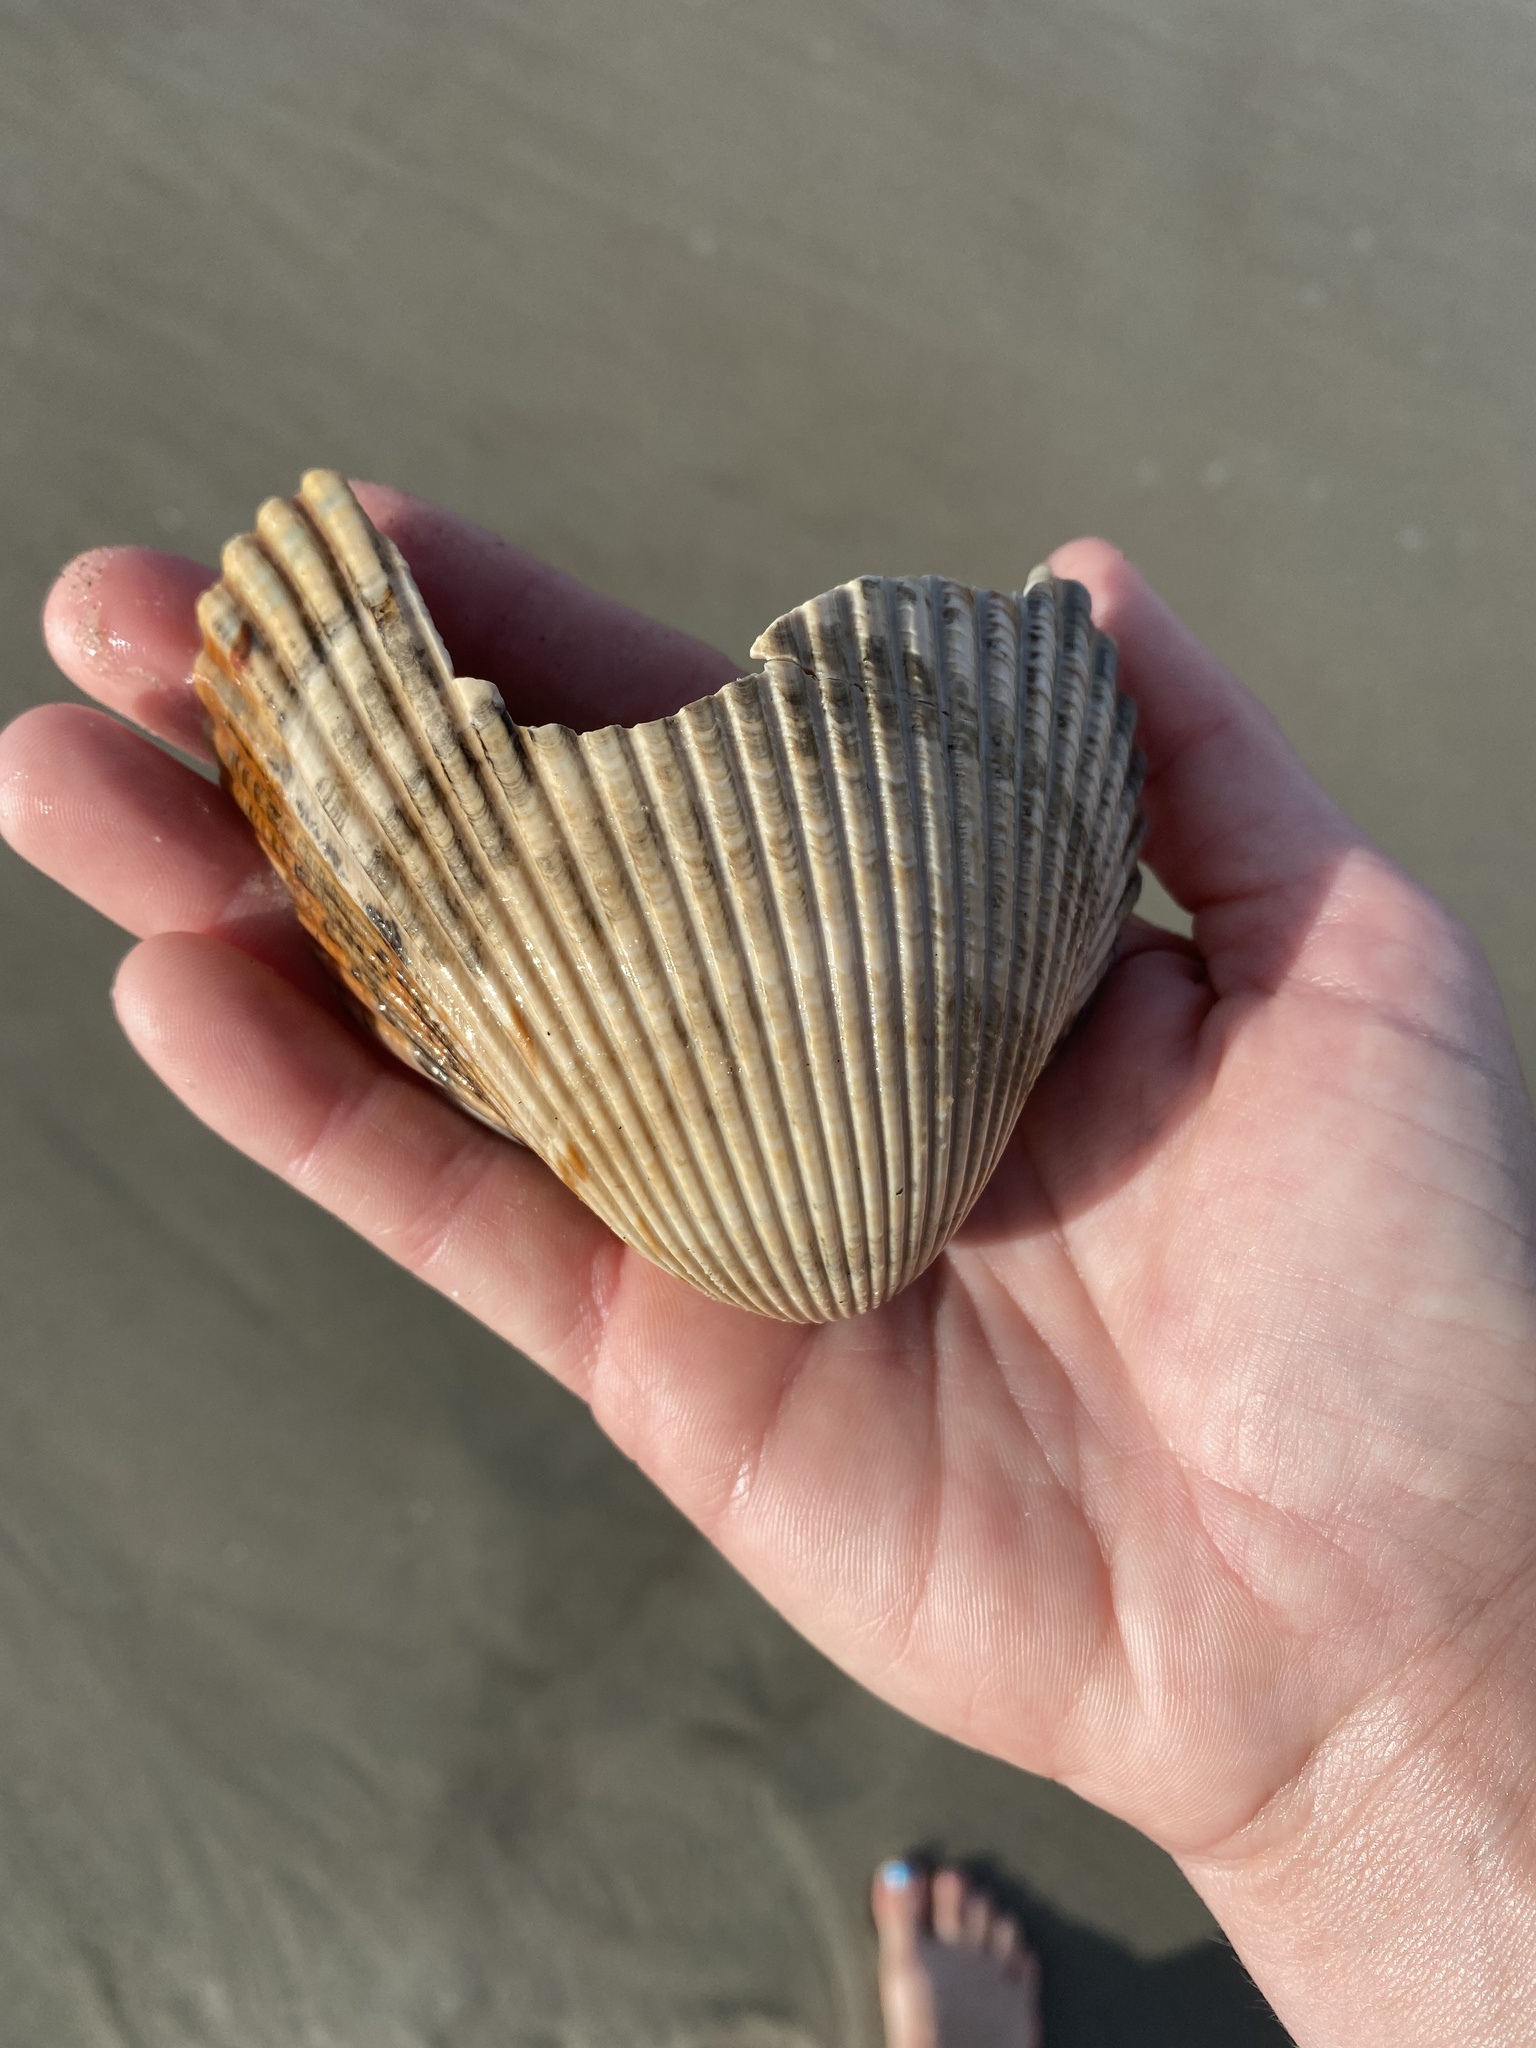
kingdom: Animalia
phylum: Mollusca
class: Bivalvia
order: Cardiida
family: Cardiidae
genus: Dinocardium
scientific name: Dinocardium robustum
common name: Atlantic giant cockle
